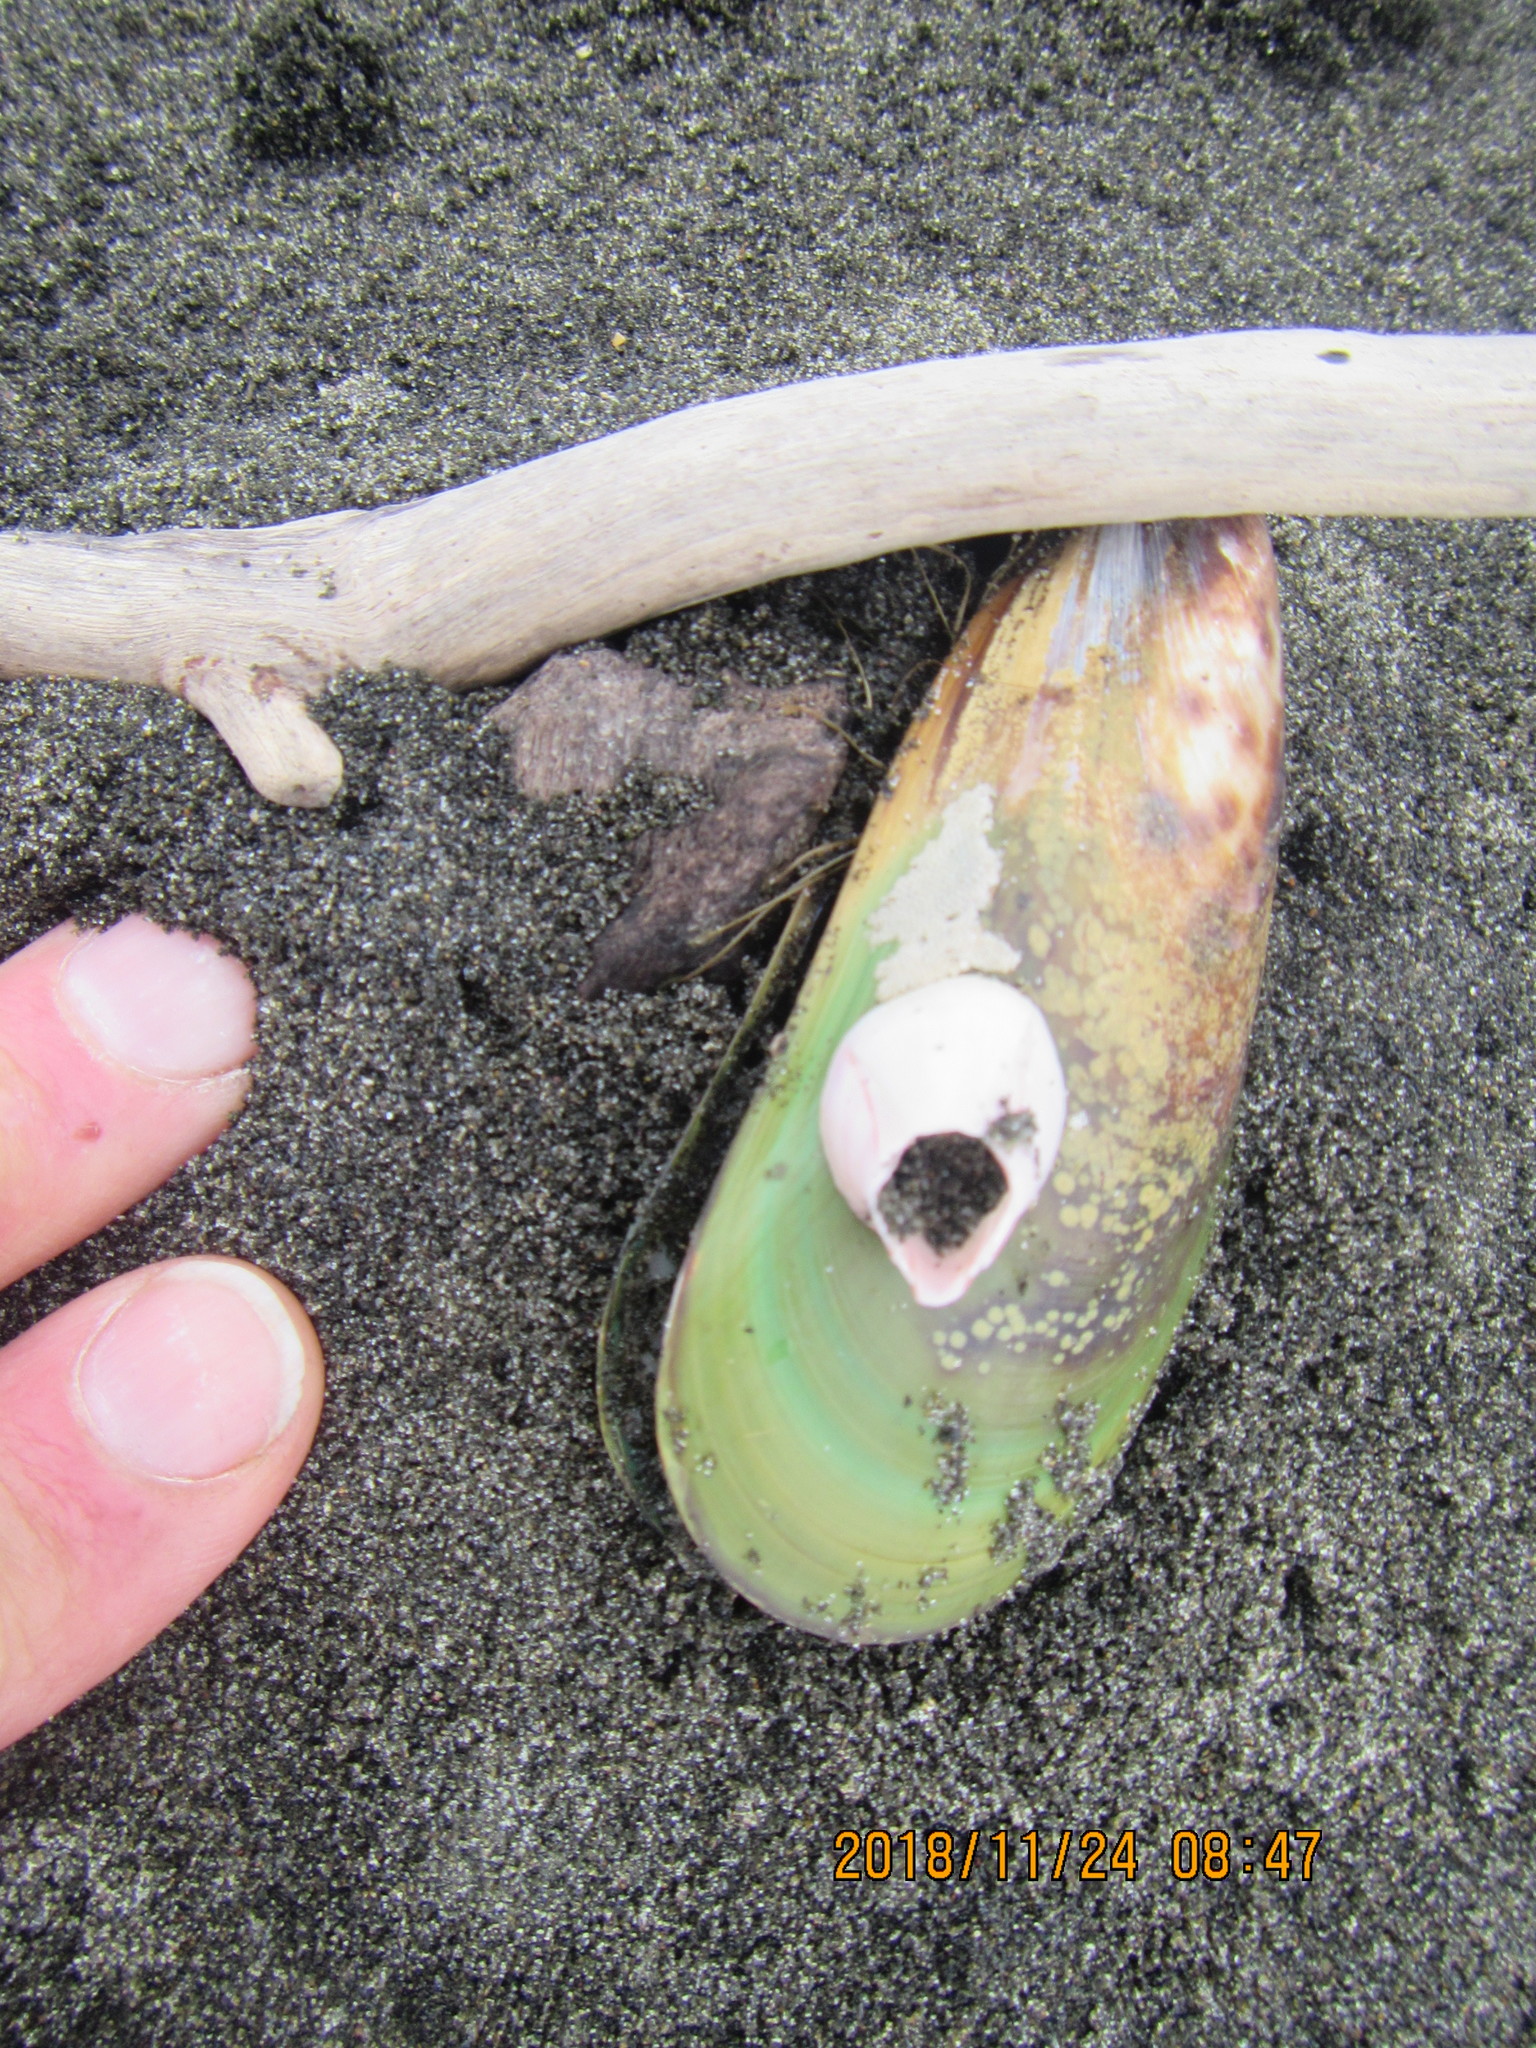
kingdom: Animalia
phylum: Mollusca
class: Bivalvia
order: Mytilida
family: Mytilidae
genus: Perna
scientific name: Perna canaliculus
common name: New zealand greenshelltm
